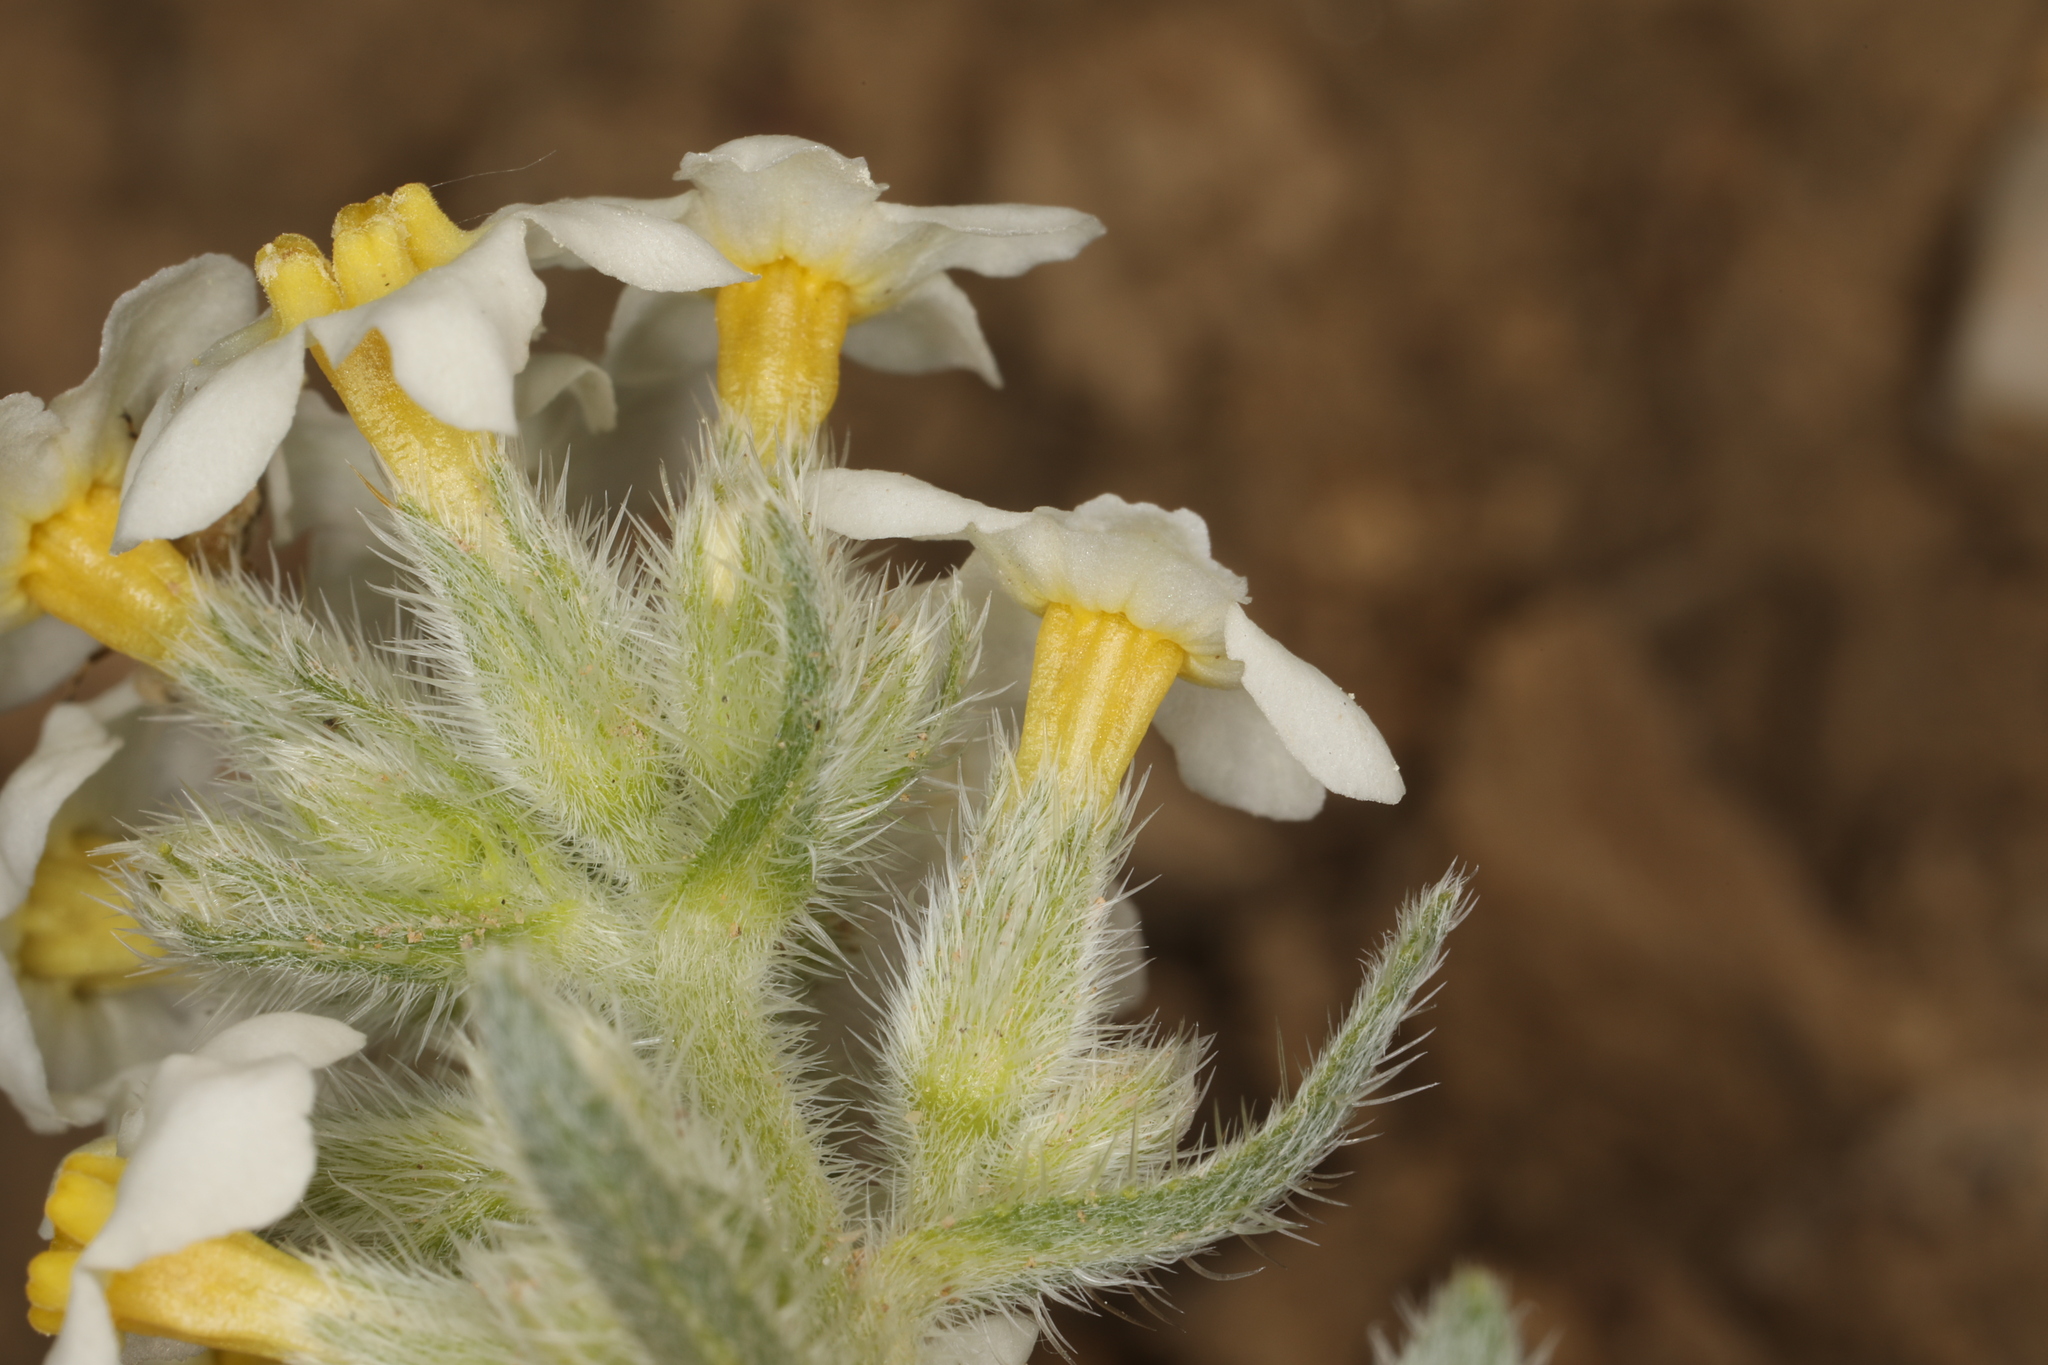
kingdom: Plantae
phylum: Tracheophyta
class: Magnoliopsida
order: Boraginales
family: Boraginaceae
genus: Oreocarya
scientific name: Oreocarya flavoculata
